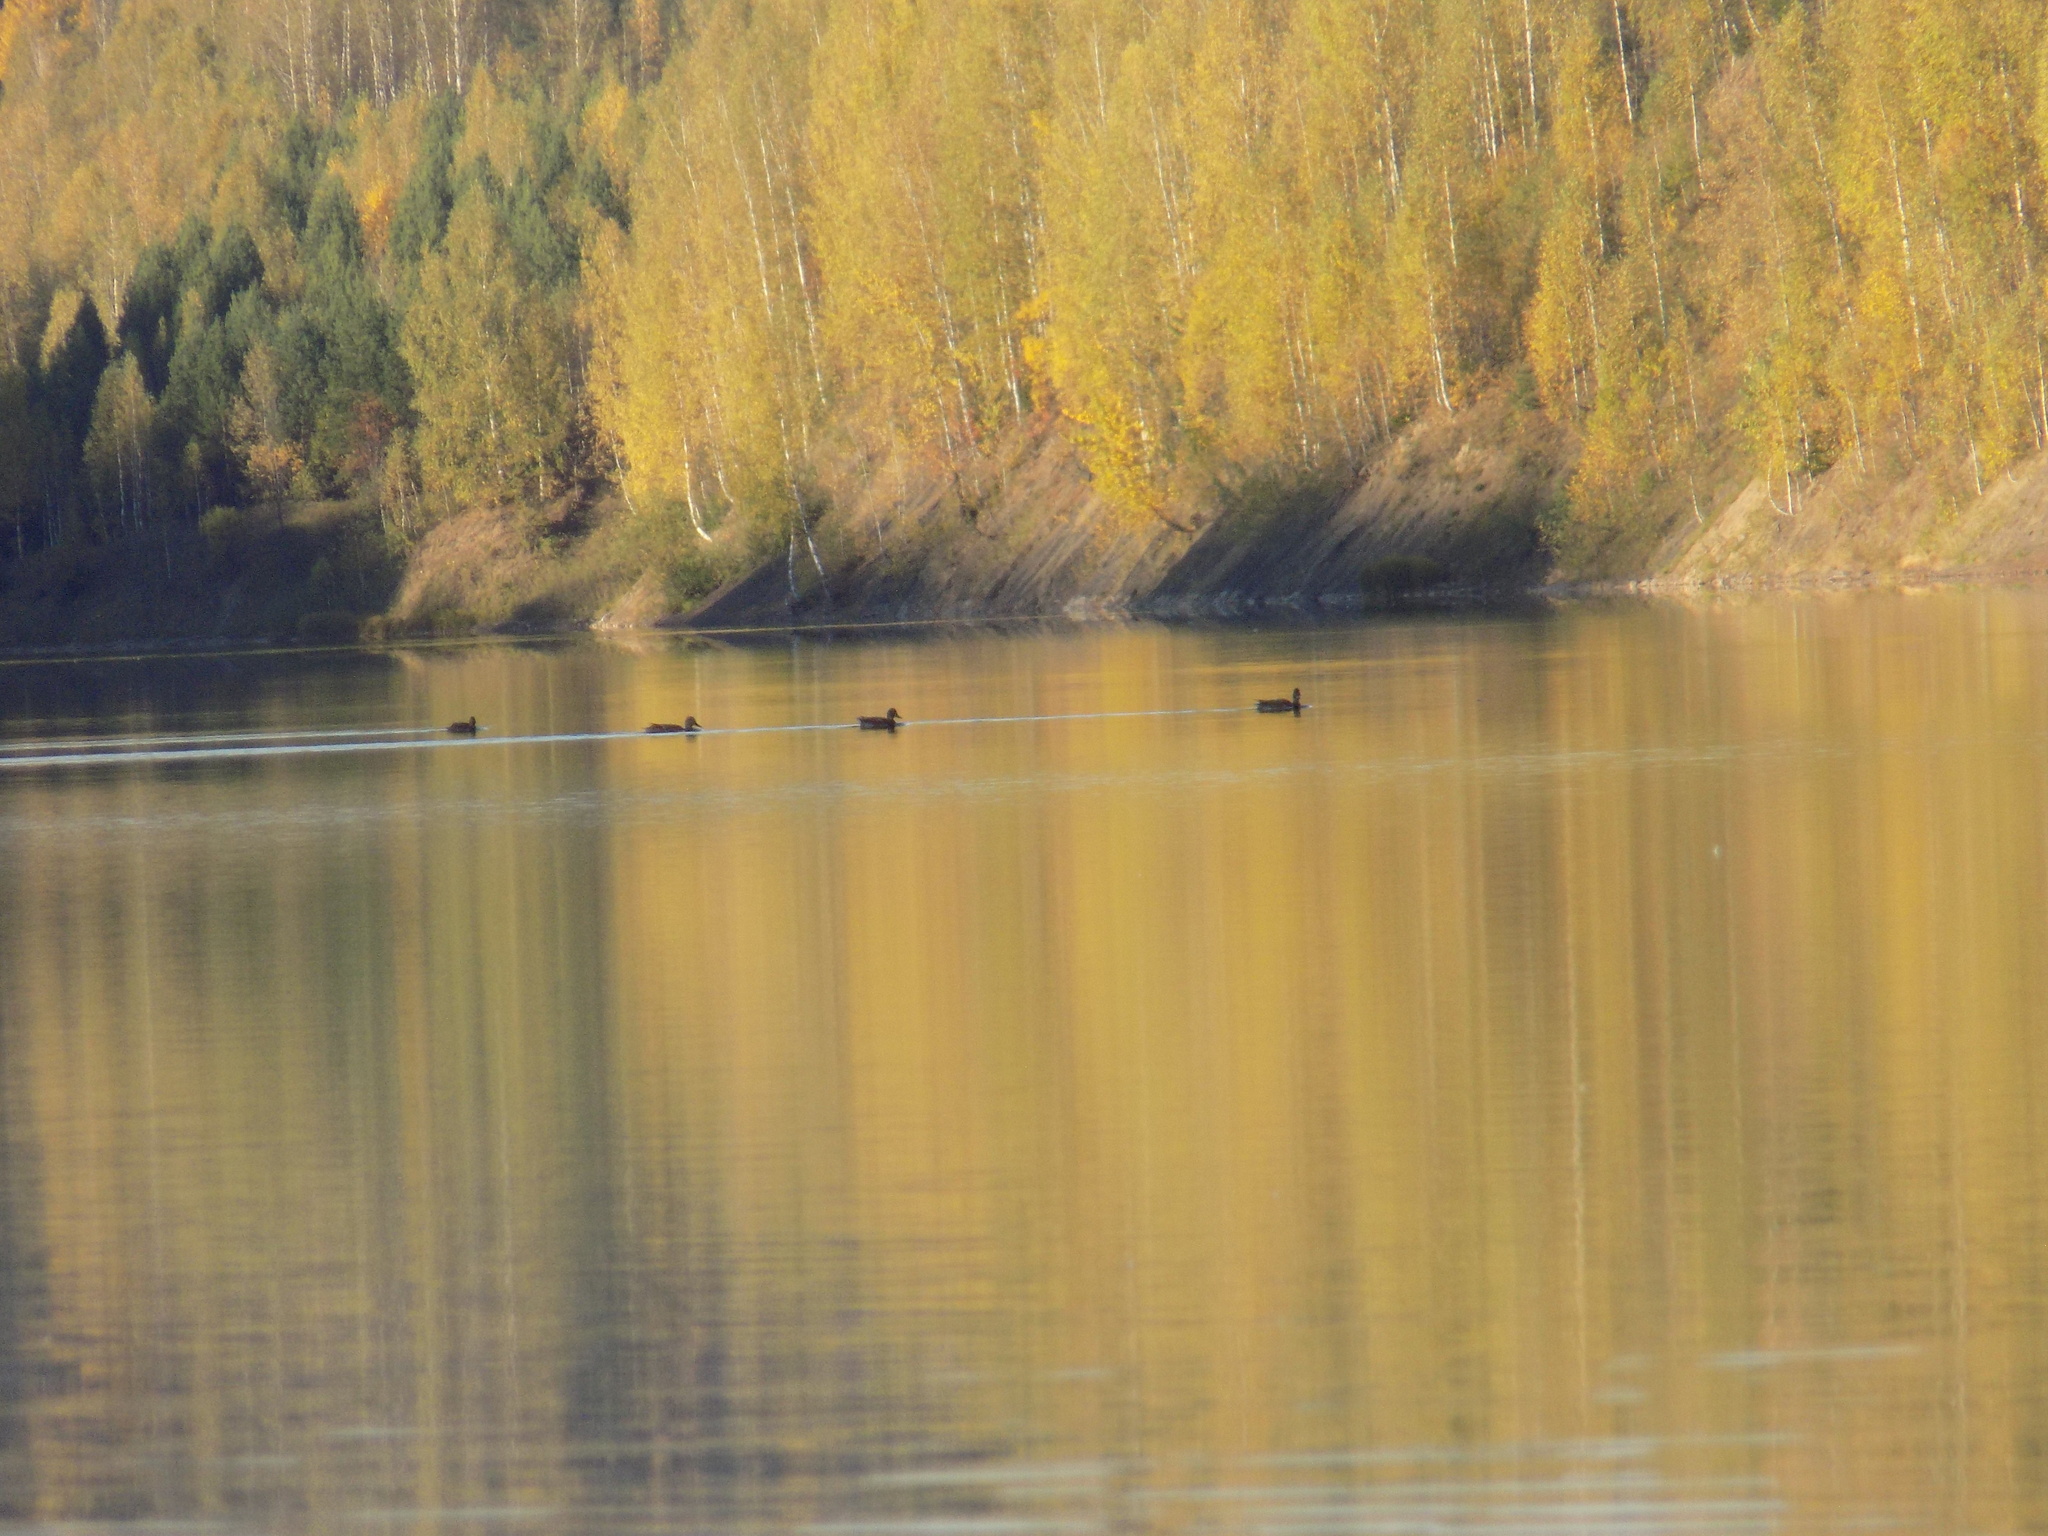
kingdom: Animalia
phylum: Chordata
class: Aves
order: Anseriformes
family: Anatidae
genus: Anas
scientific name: Anas platyrhynchos
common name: Mallard
